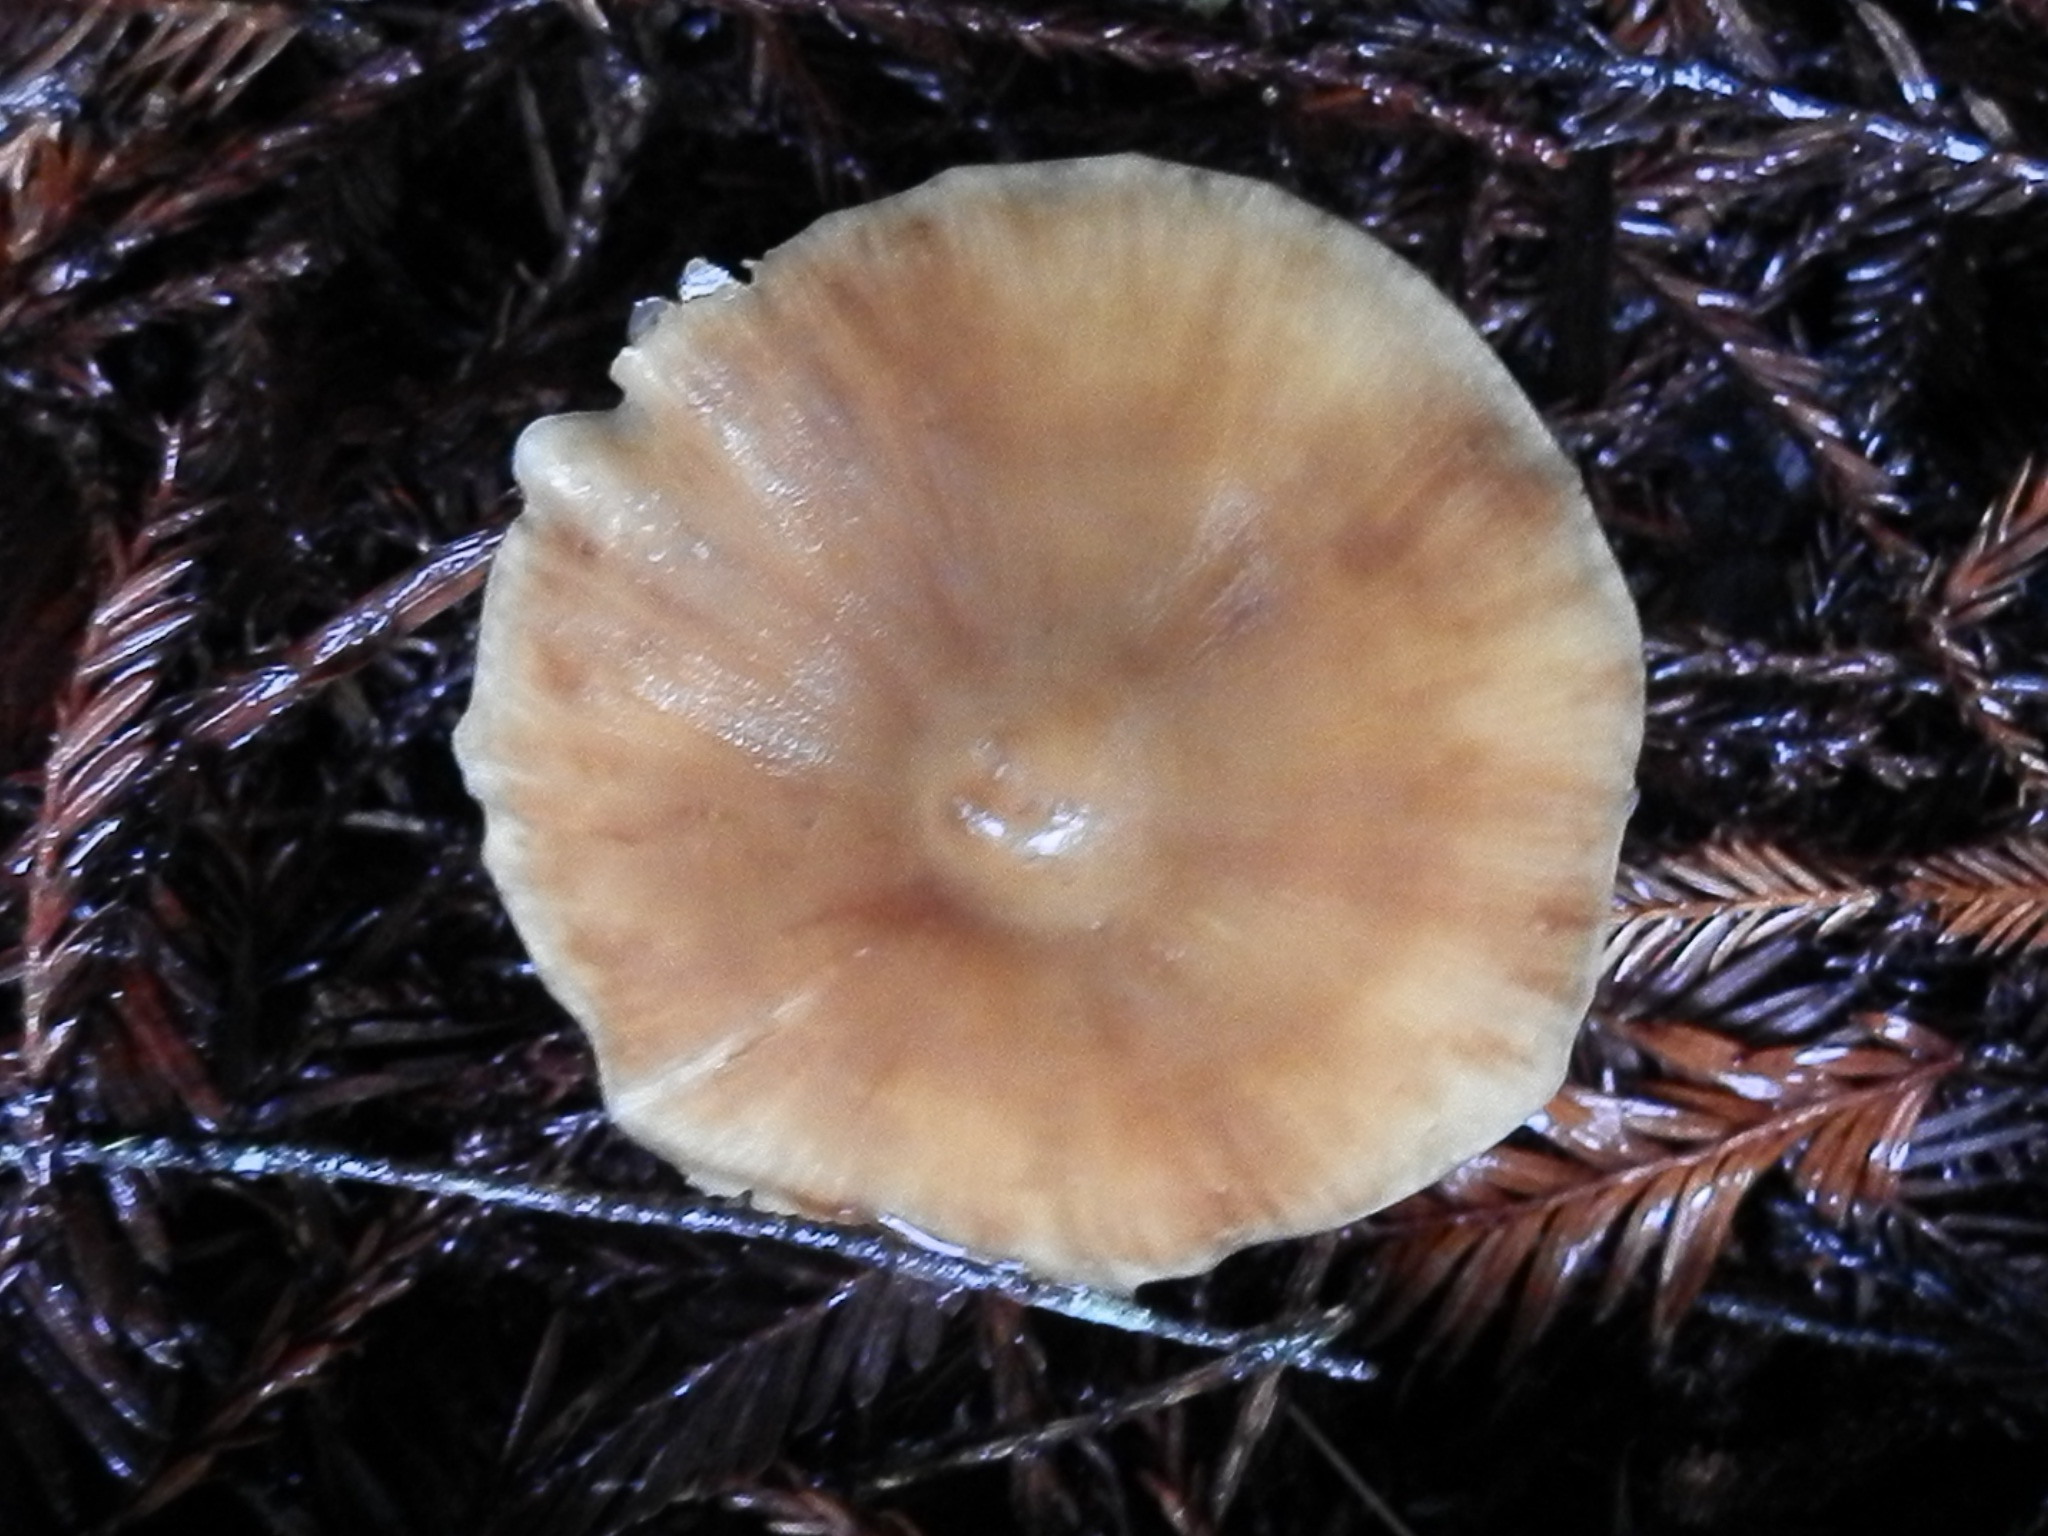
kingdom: Fungi
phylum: Basidiomycota
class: Agaricomycetes
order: Agaricales
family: Tricholomataceae
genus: Caulorhiza
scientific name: Caulorhiza umbonata
